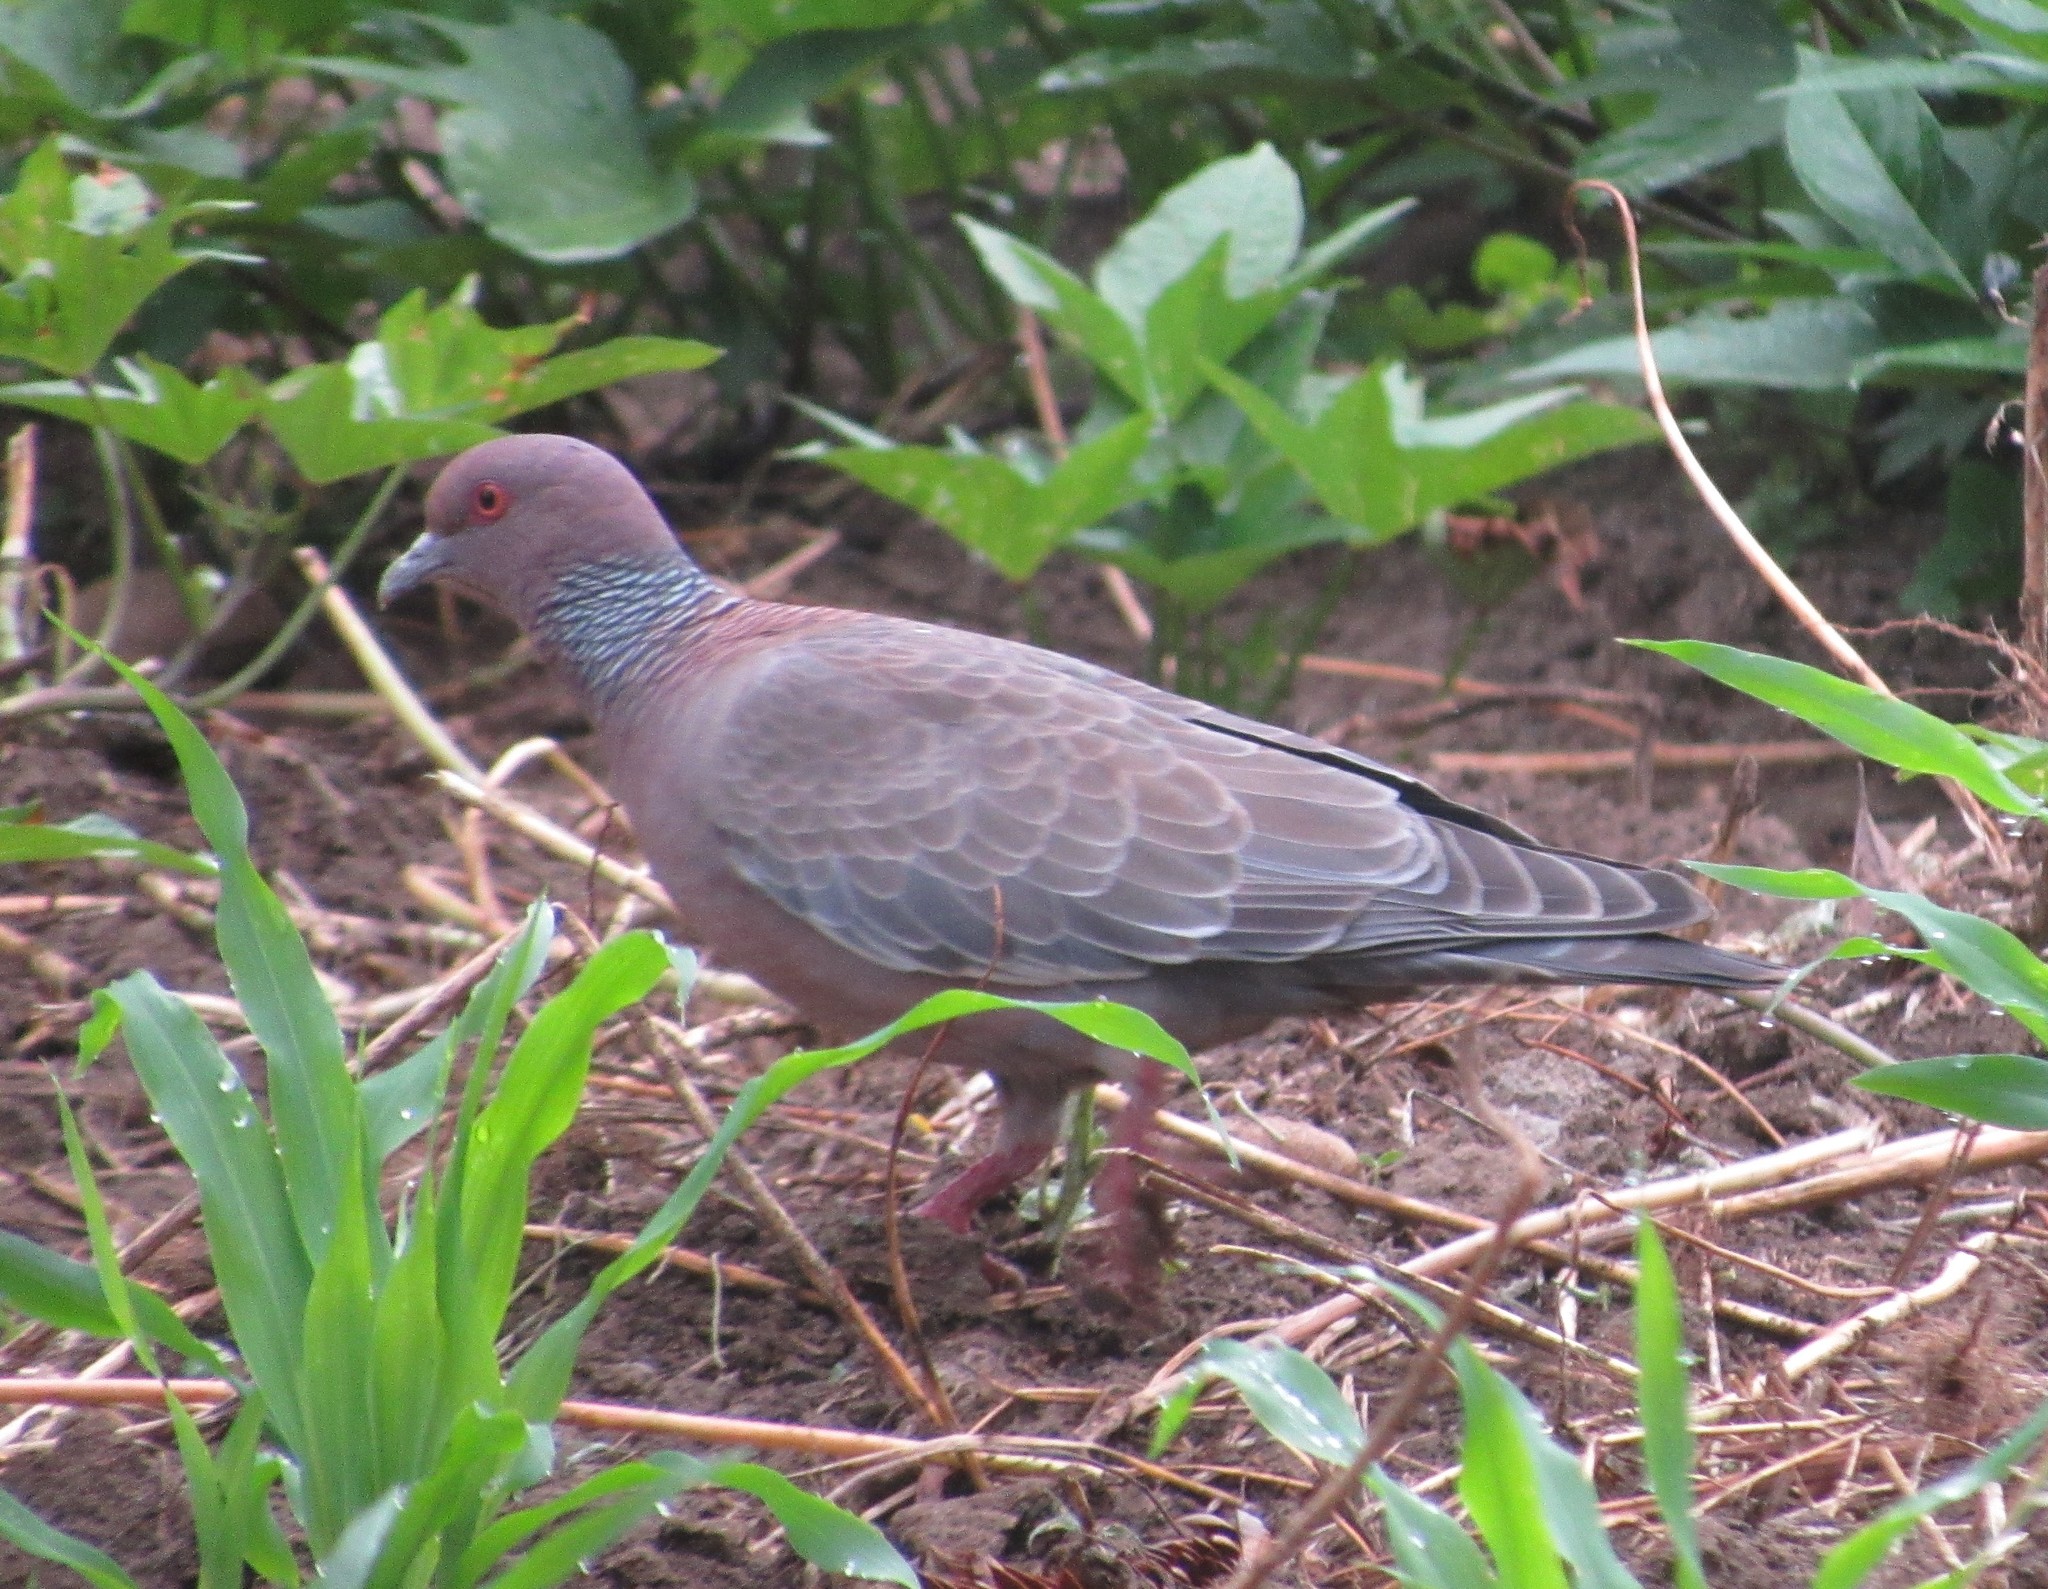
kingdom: Animalia
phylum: Chordata
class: Aves
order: Columbiformes
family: Columbidae
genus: Patagioenas
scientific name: Patagioenas picazuro
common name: Picazuro pigeon
